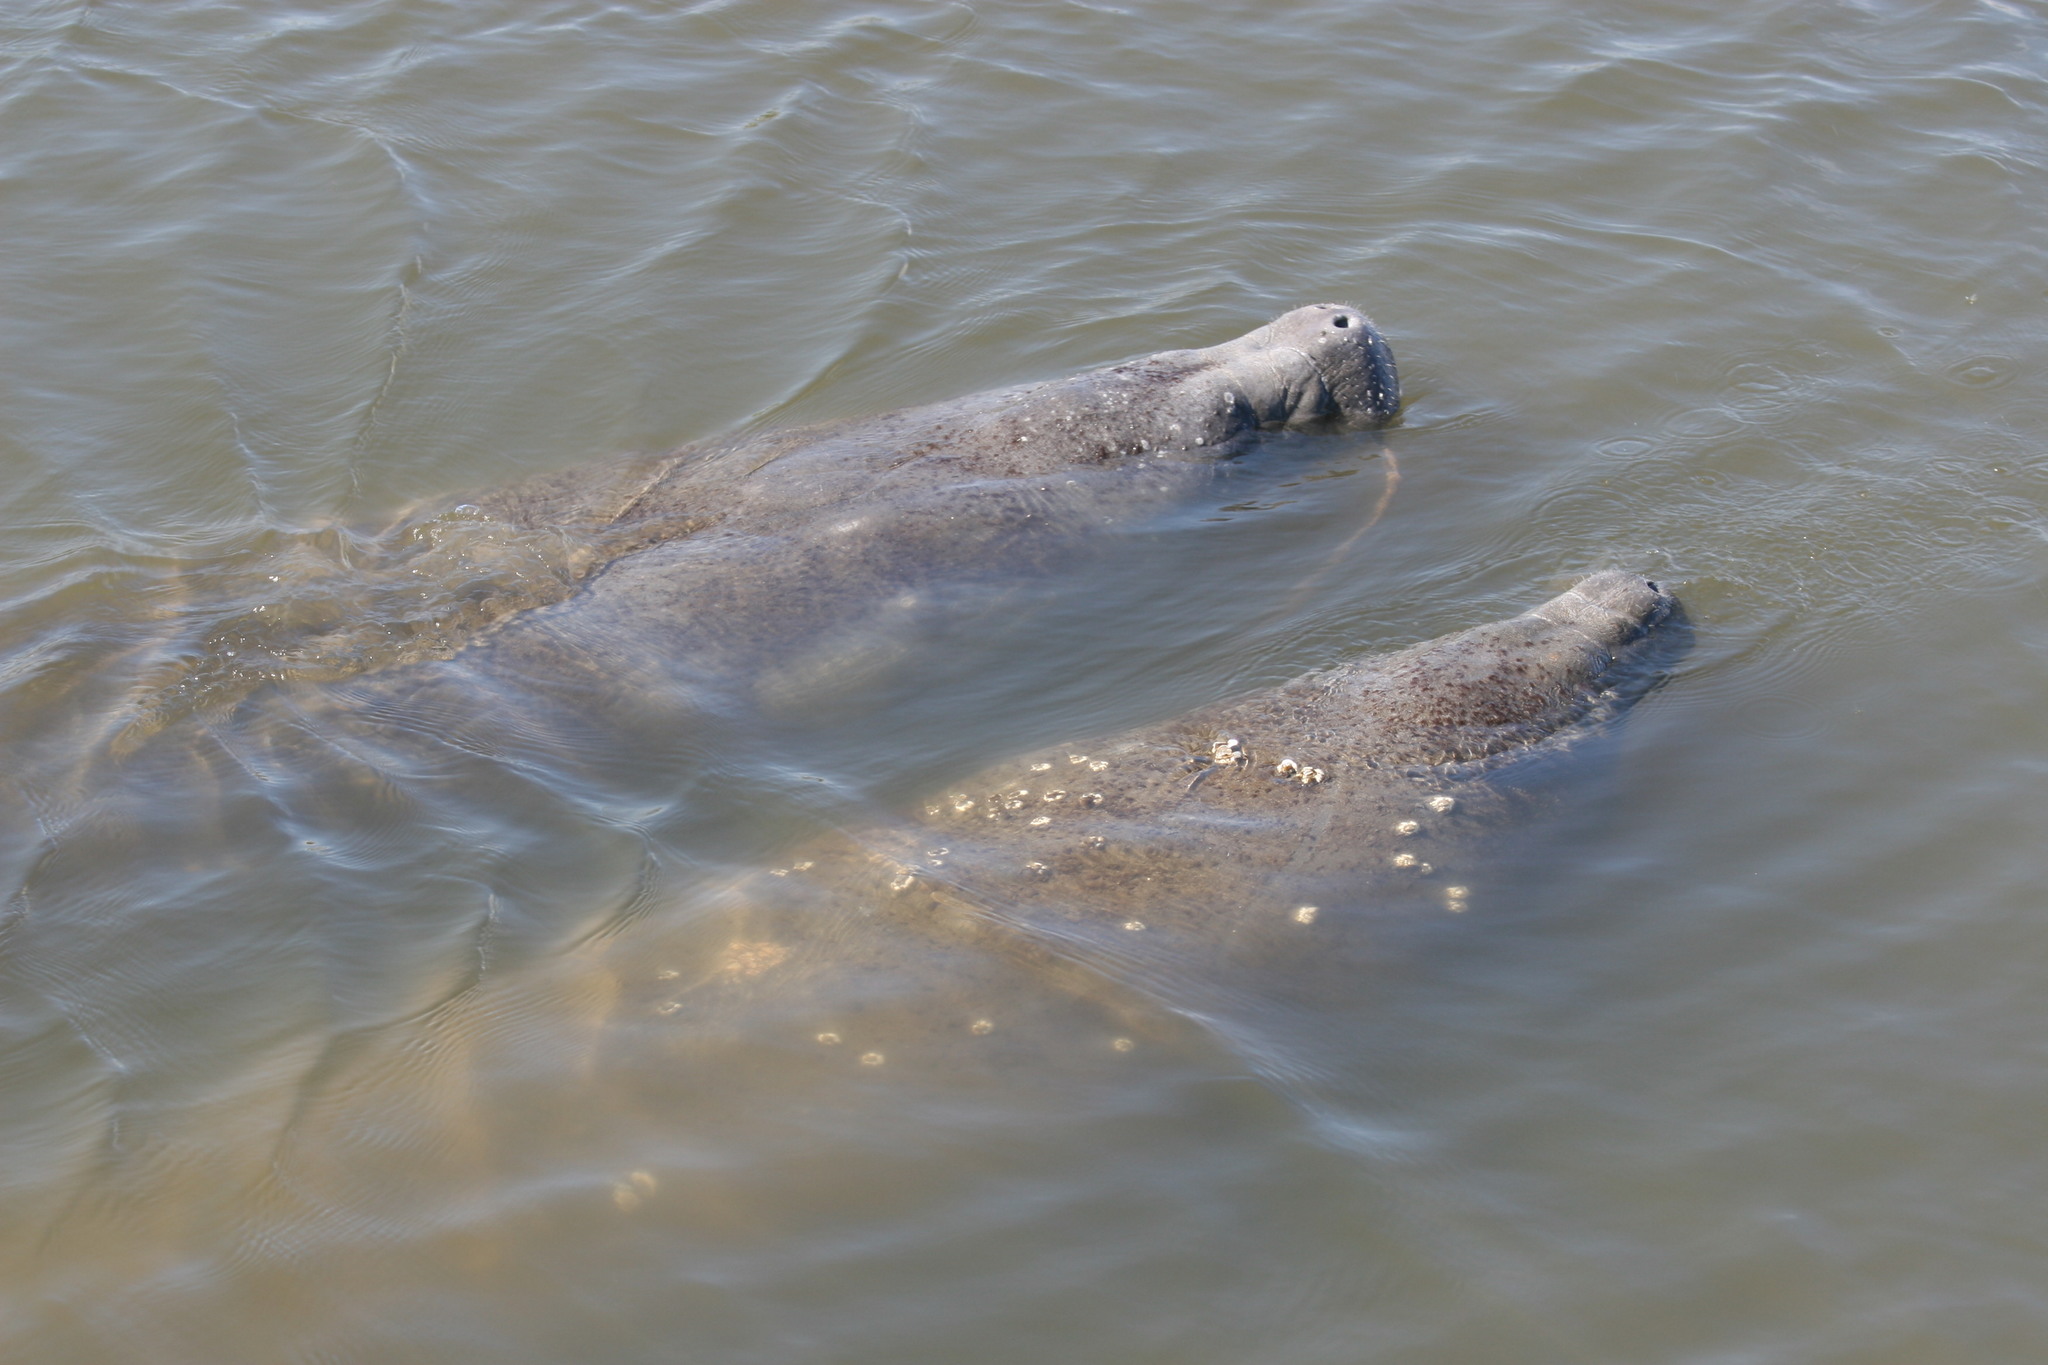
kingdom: Animalia
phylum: Chordata
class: Mammalia
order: Sirenia
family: Trichechidae
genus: Trichechus
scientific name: Trichechus manatus
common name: West indian manatee
